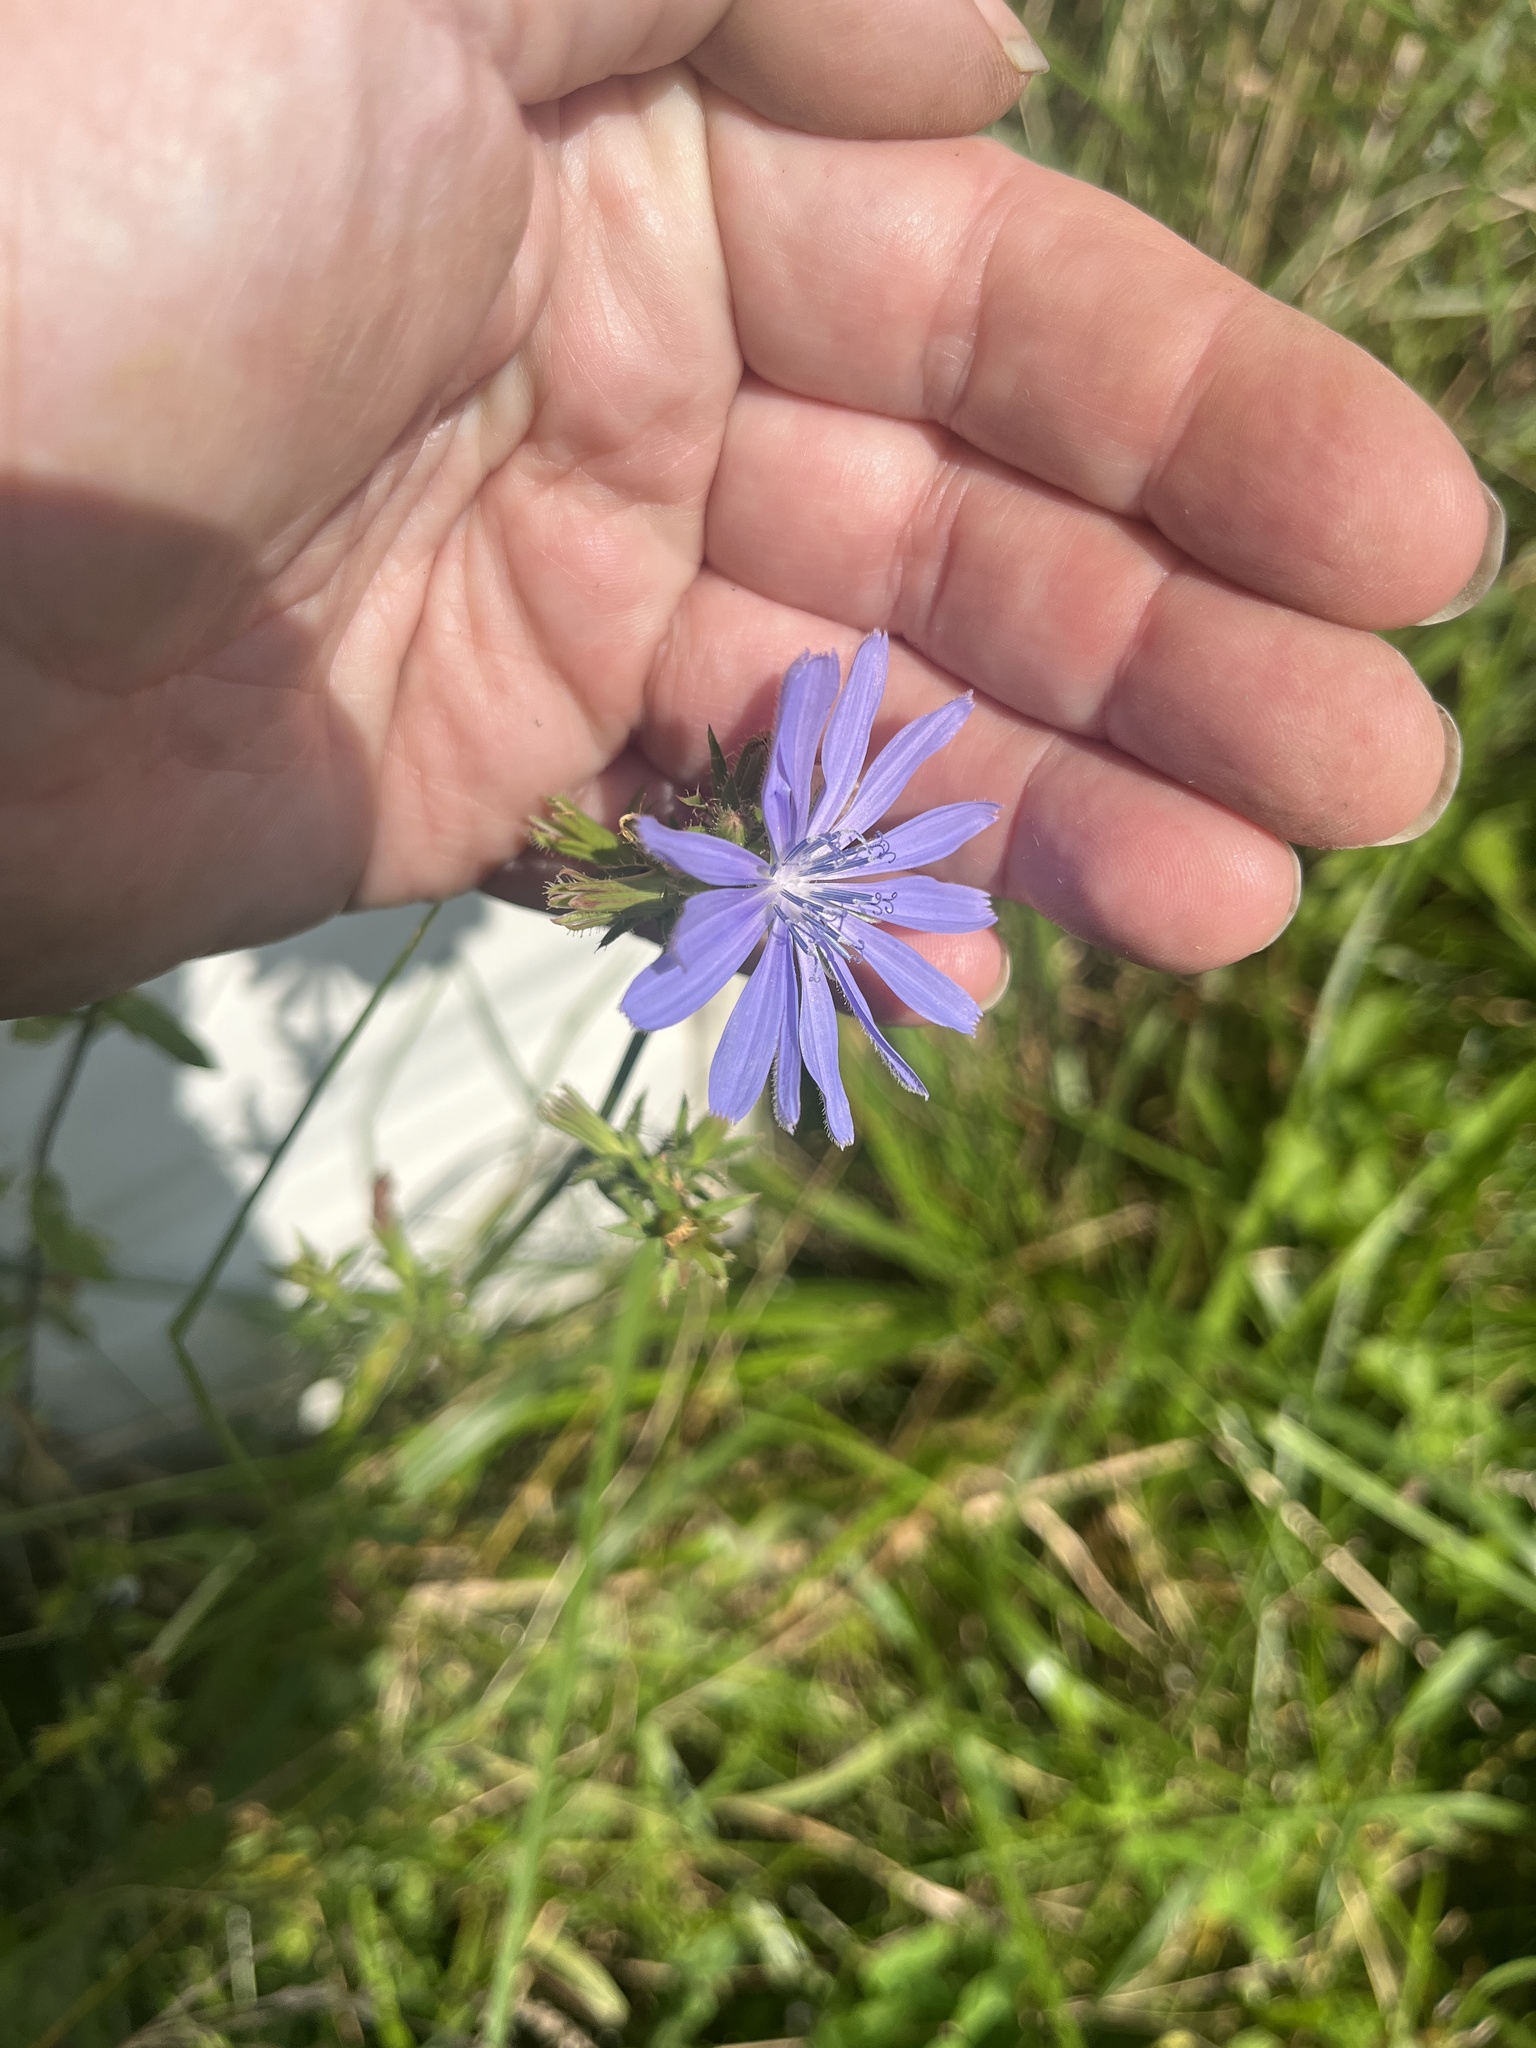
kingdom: Plantae
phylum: Tracheophyta
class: Magnoliopsida
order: Asterales
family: Asteraceae
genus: Cichorium
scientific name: Cichorium intybus
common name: Chicory
